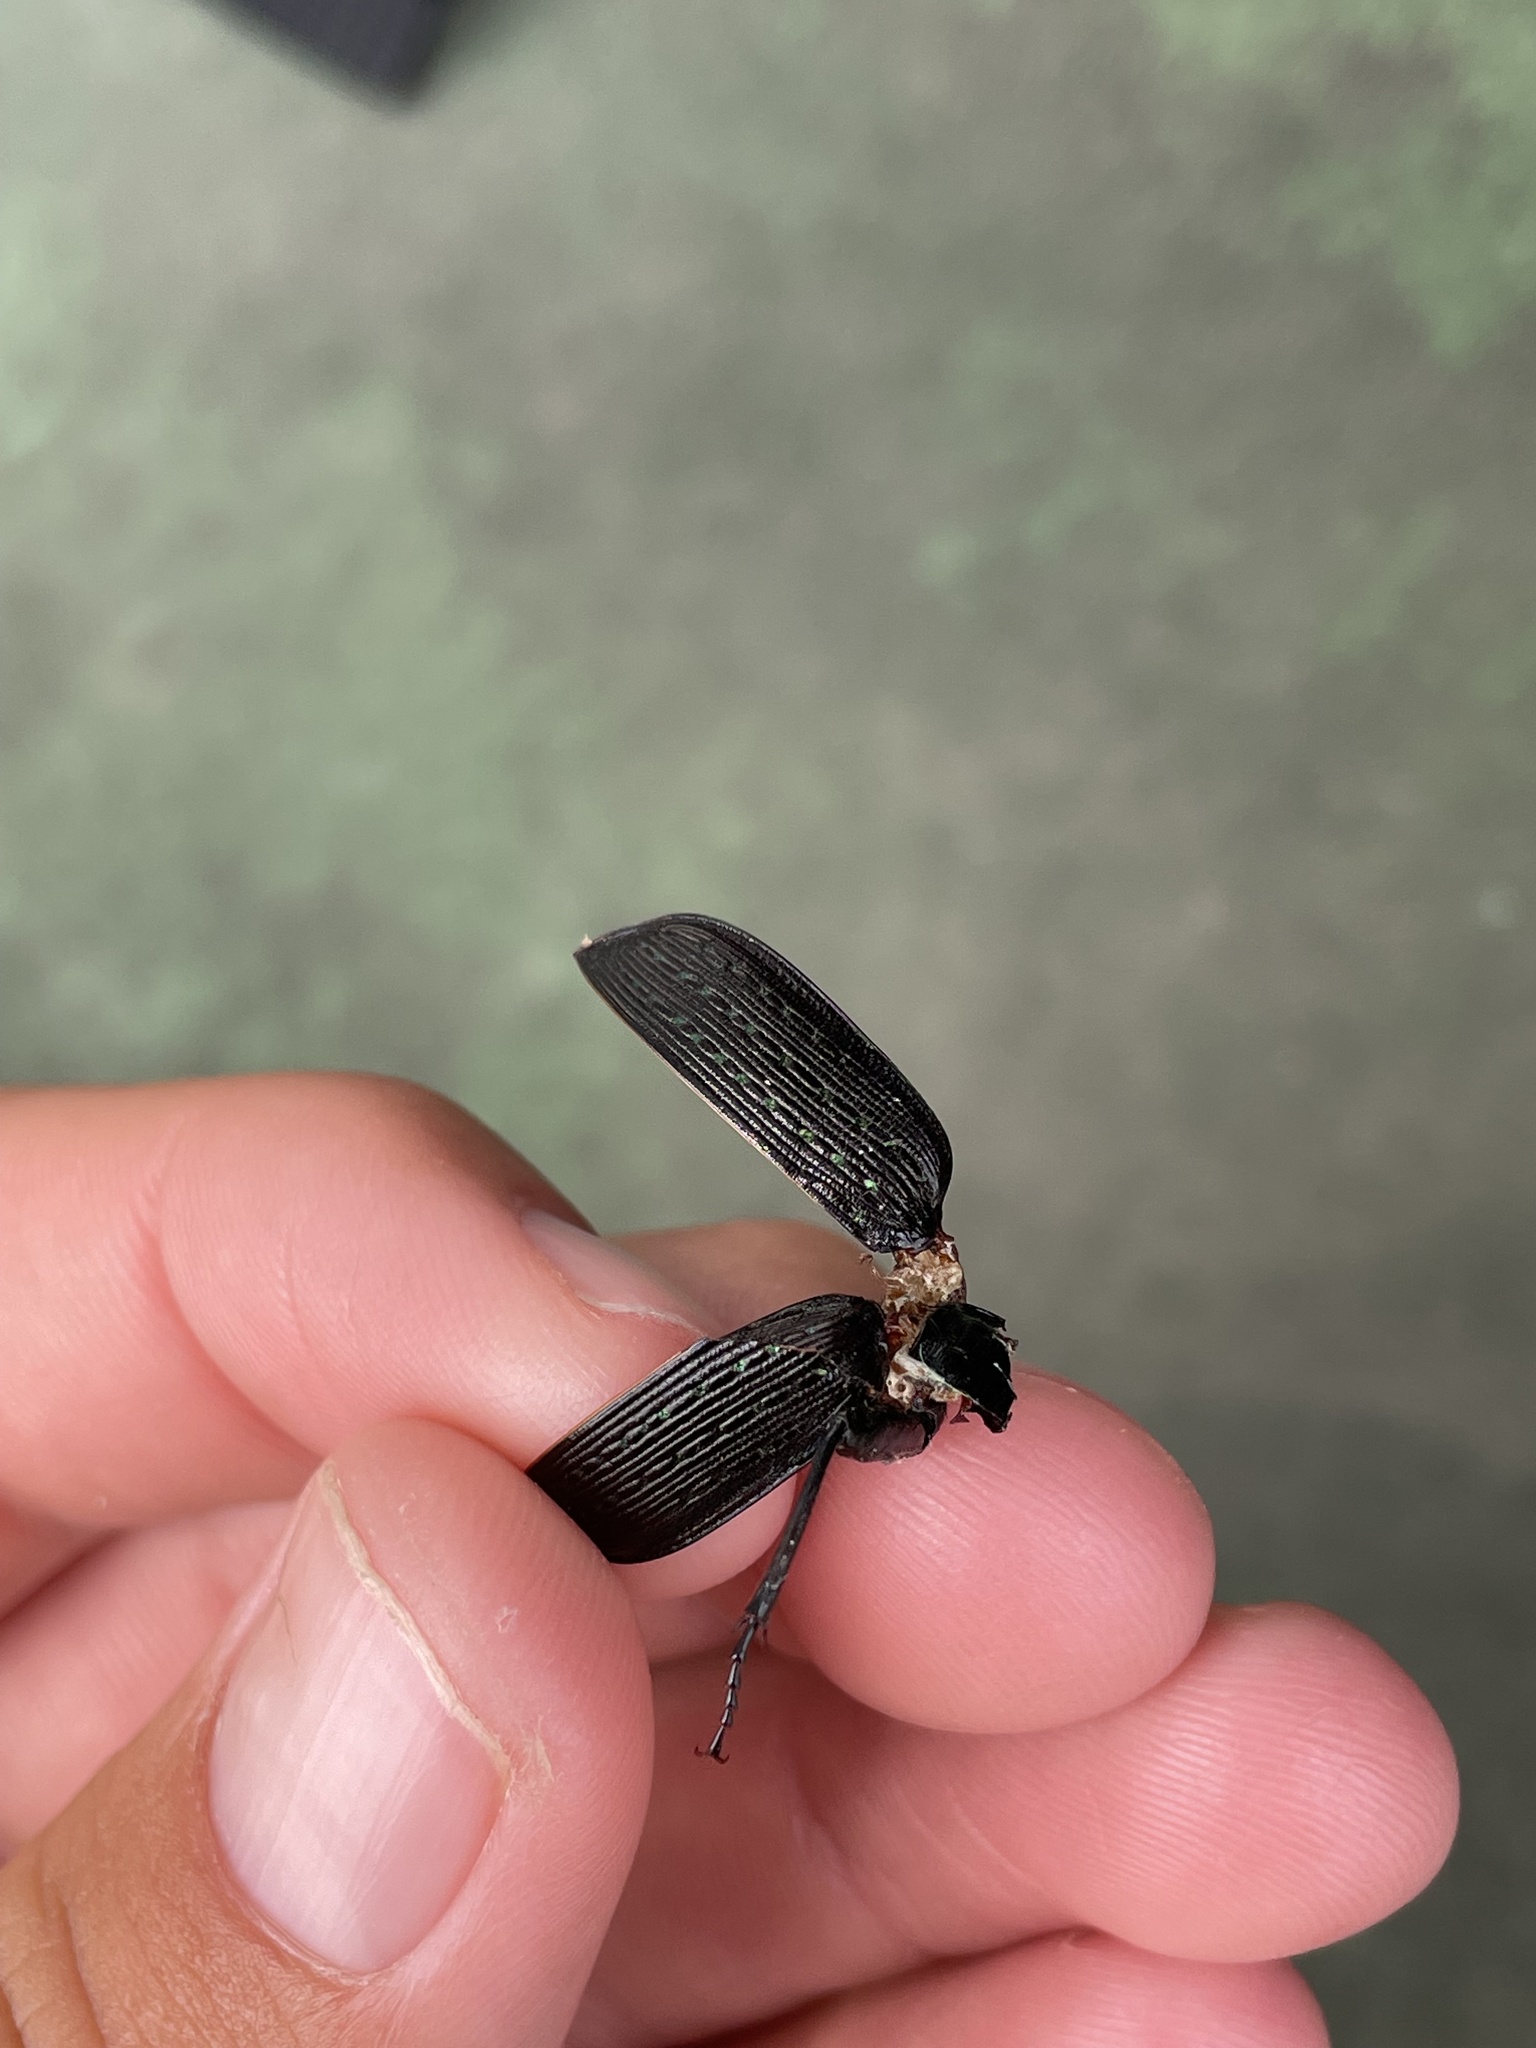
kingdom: Animalia
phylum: Arthropoda
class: Insecta
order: Coleoptera
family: Carabidae
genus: Calosoma
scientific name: Calosoma sayi
